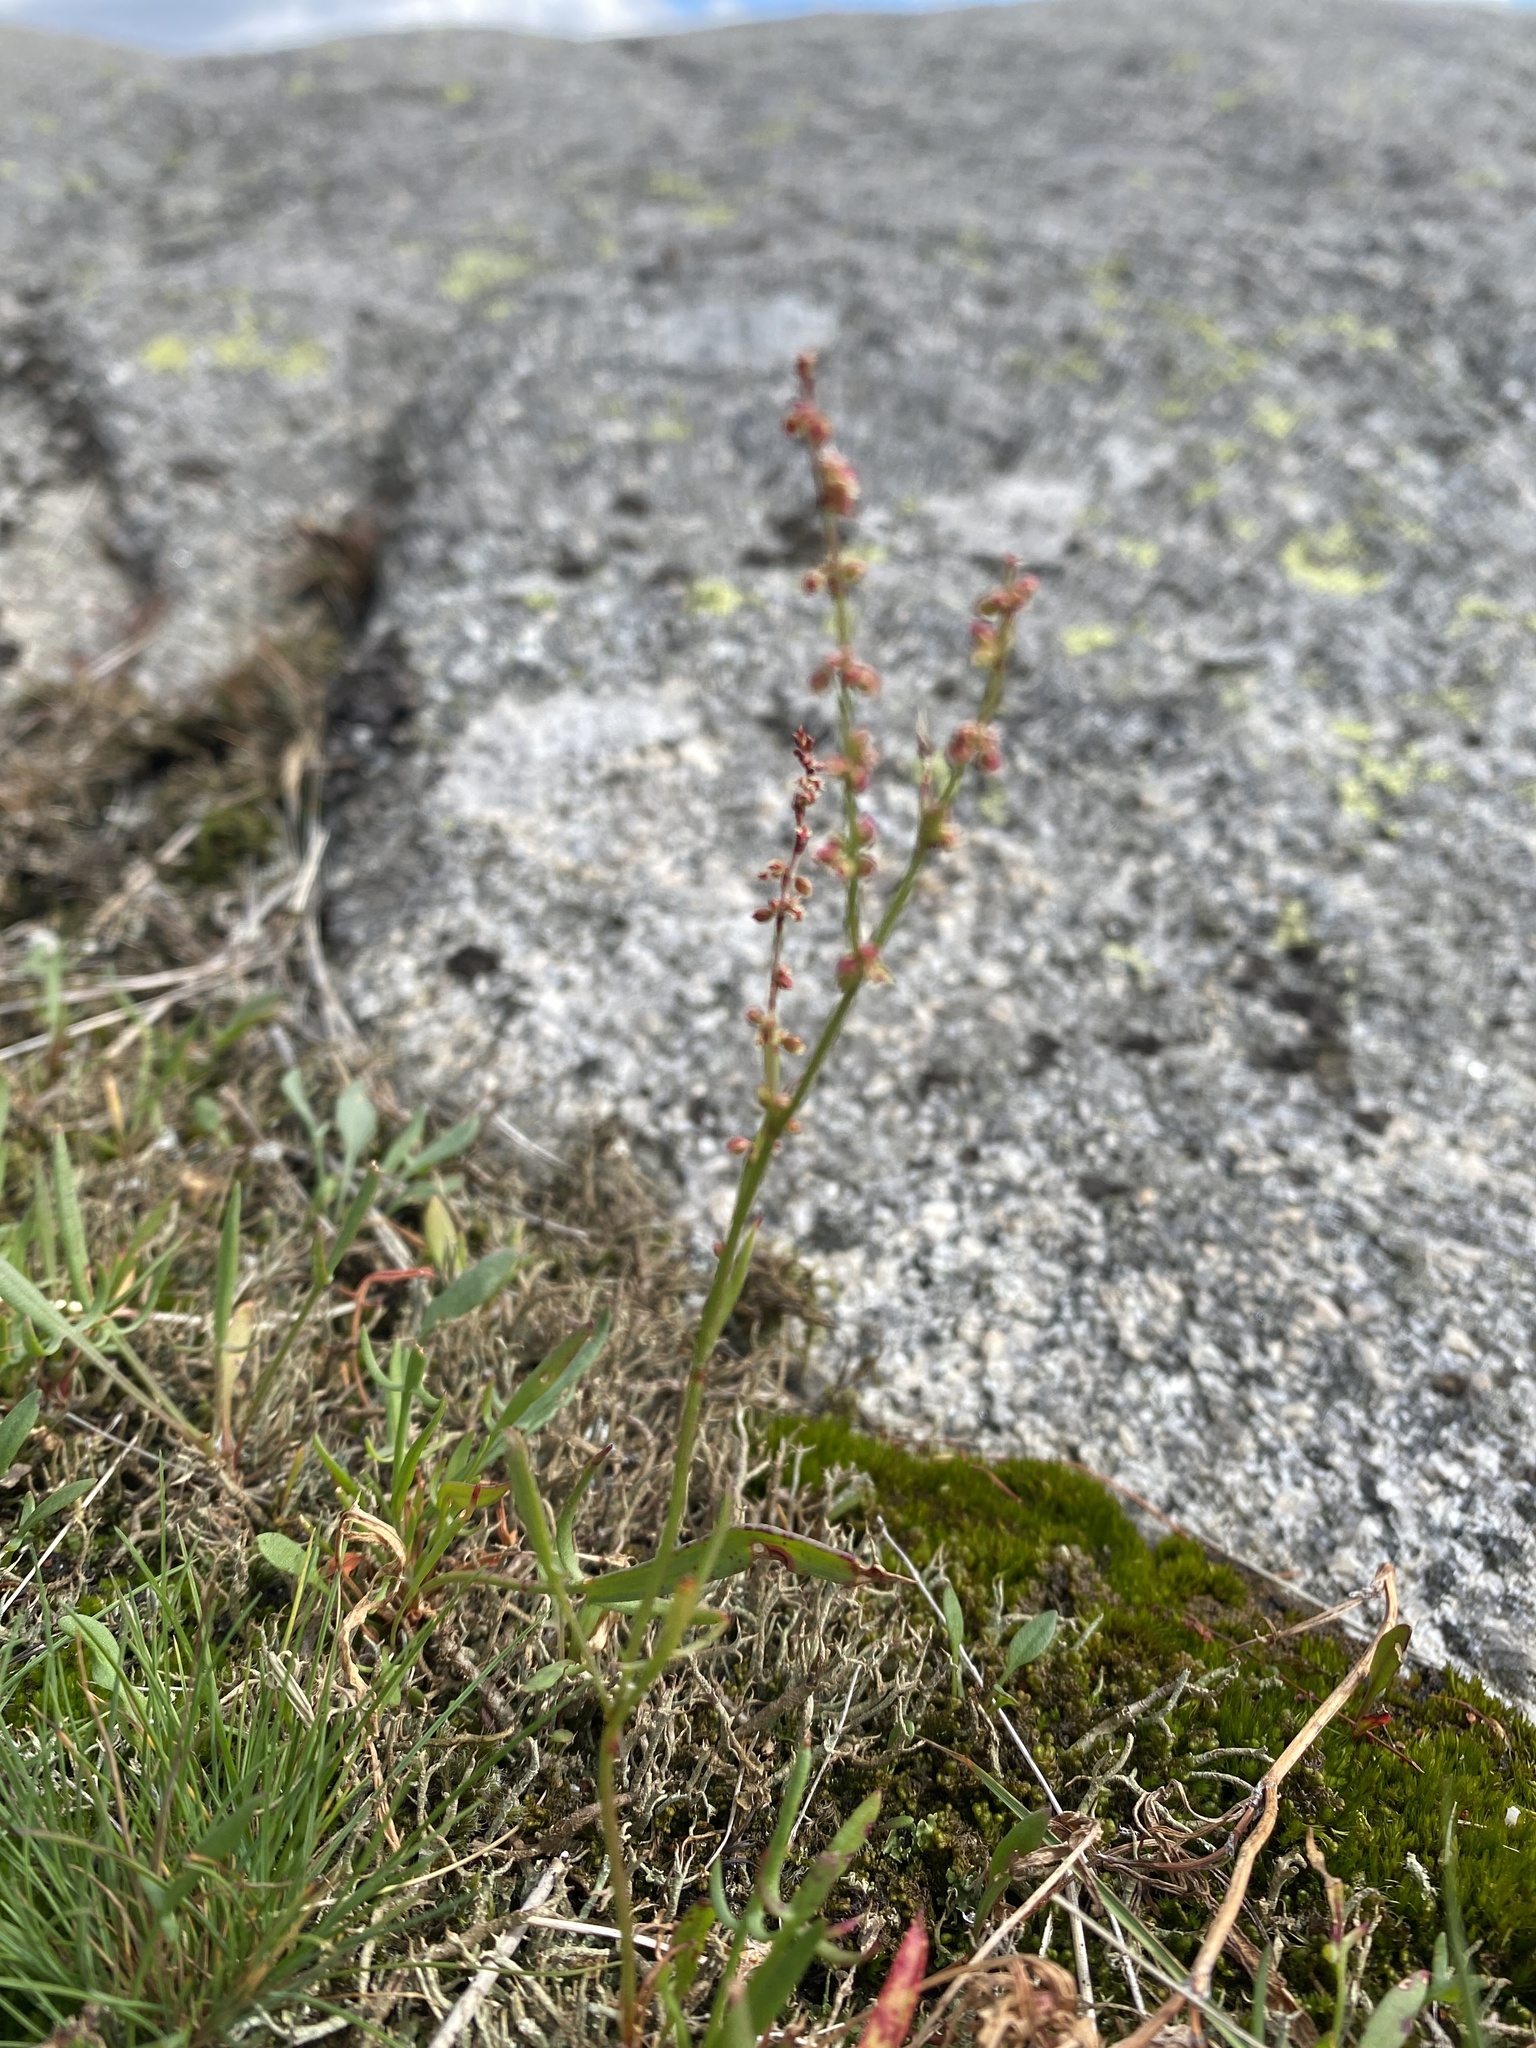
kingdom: Plantae
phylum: Tracheophyta
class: Magnoliopsida
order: Caryophyllales
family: Polygonaceae
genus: Rumex
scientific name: Rumex acetosella
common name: Common sheep sorrel
